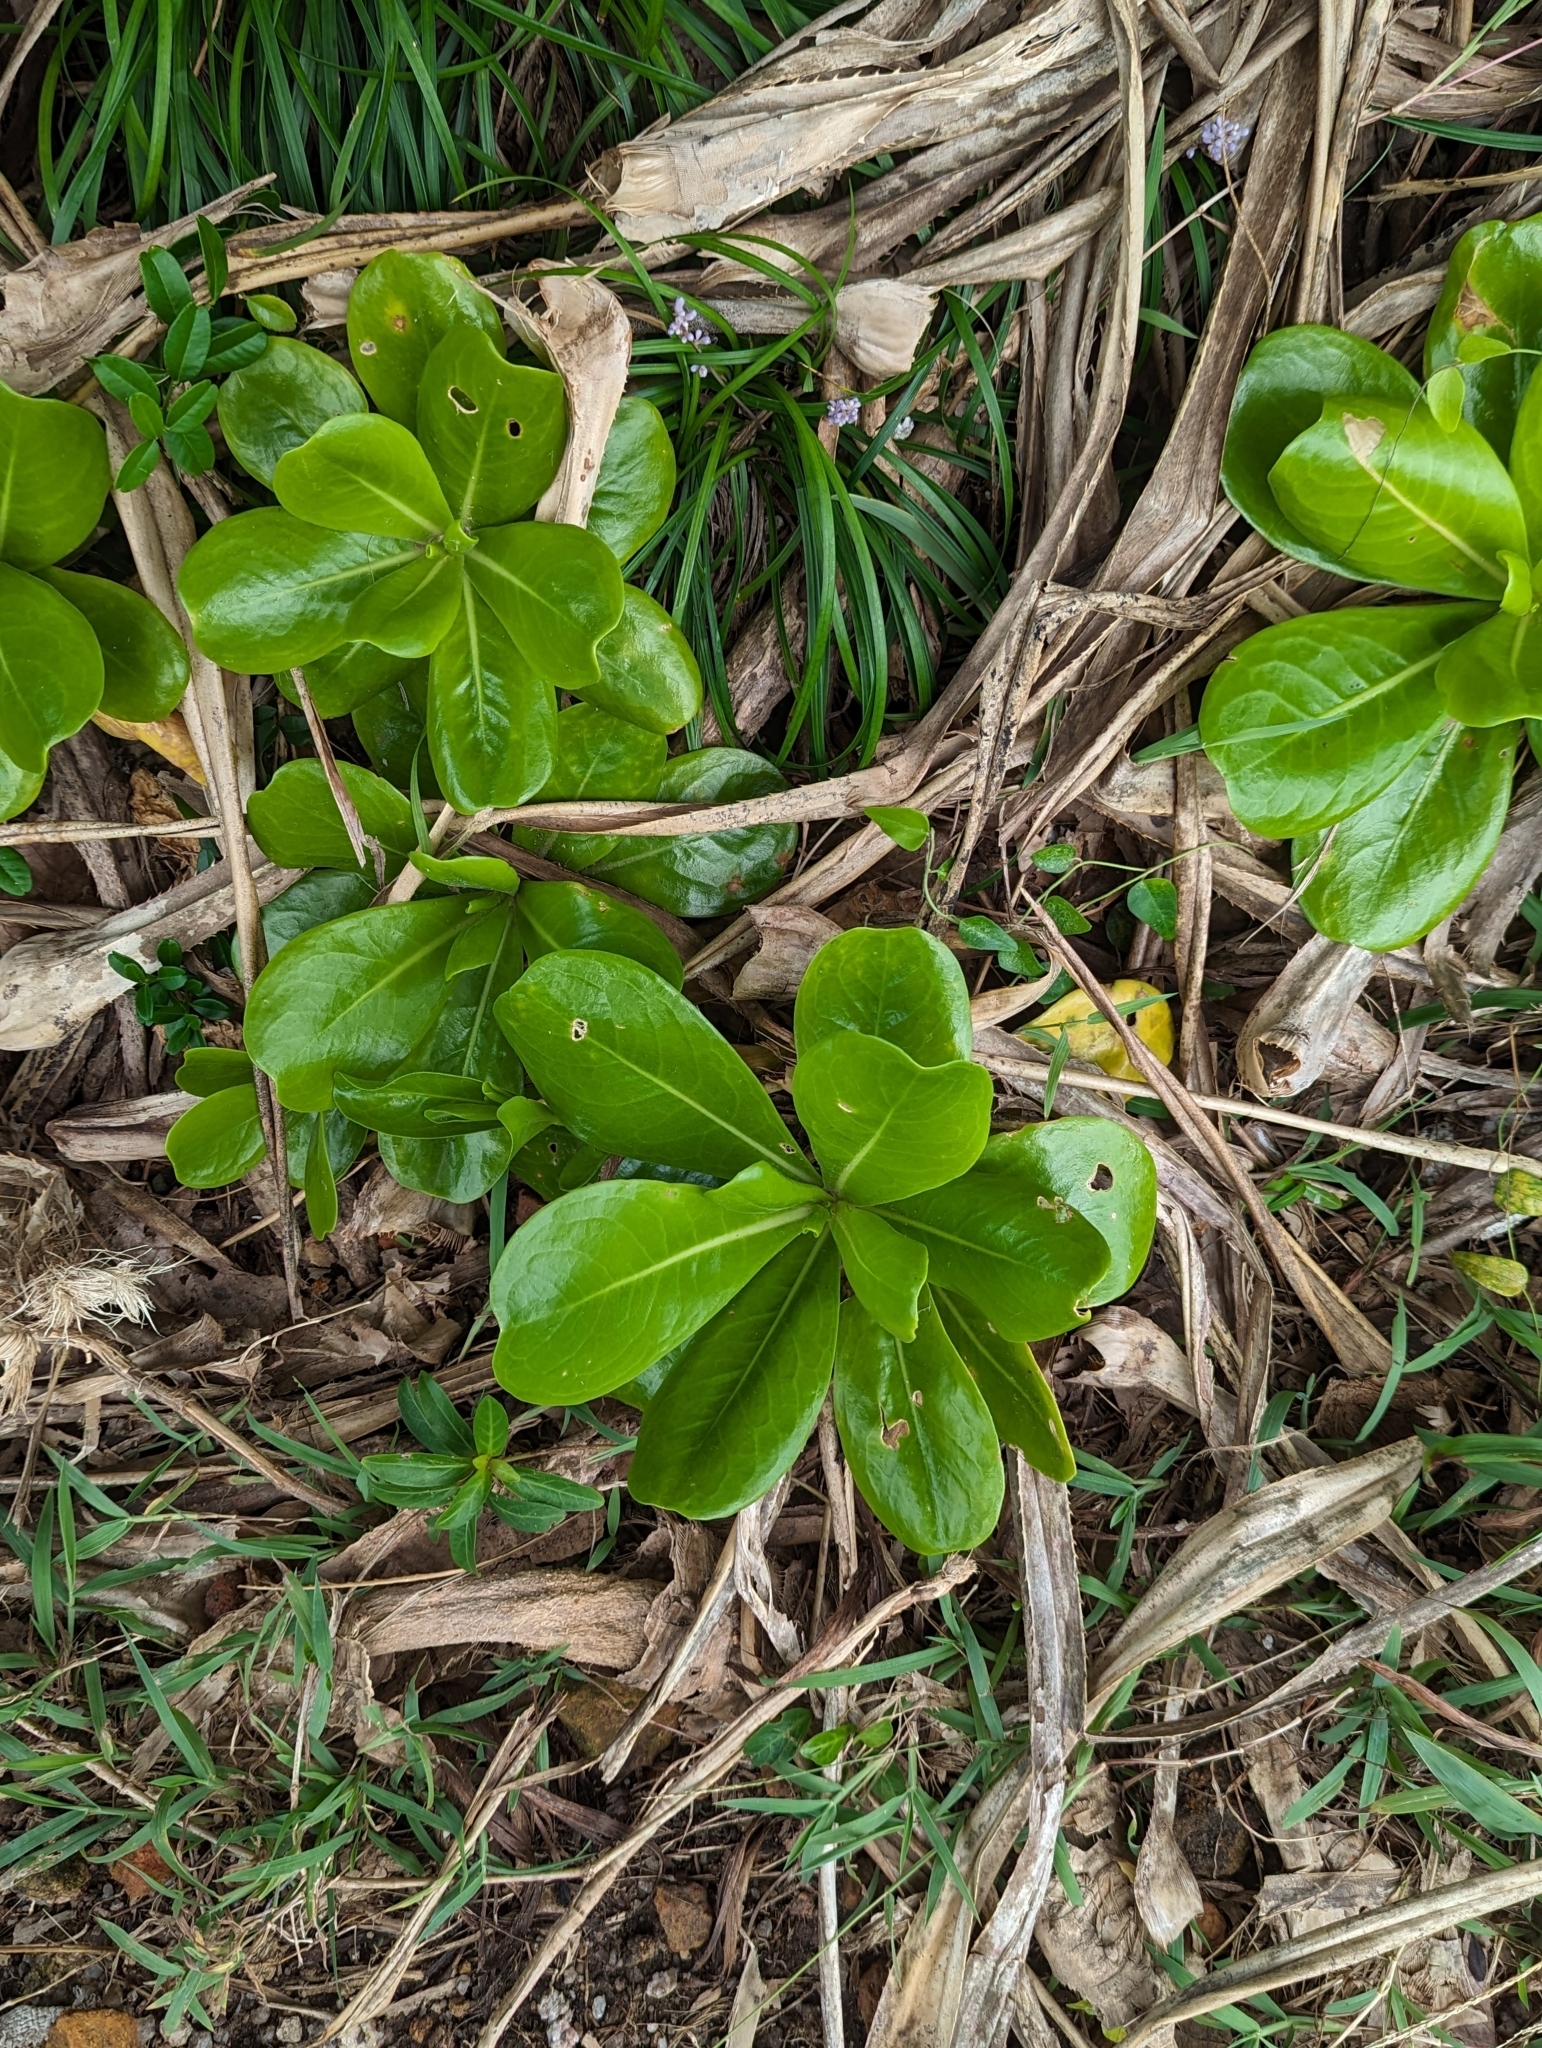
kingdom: Plantae
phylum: Tracheophyta
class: Magnoliopsida
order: Asterales
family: Goodeniaceae
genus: Scaevola
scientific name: Scaevola taccada
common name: Sea lettucetree
